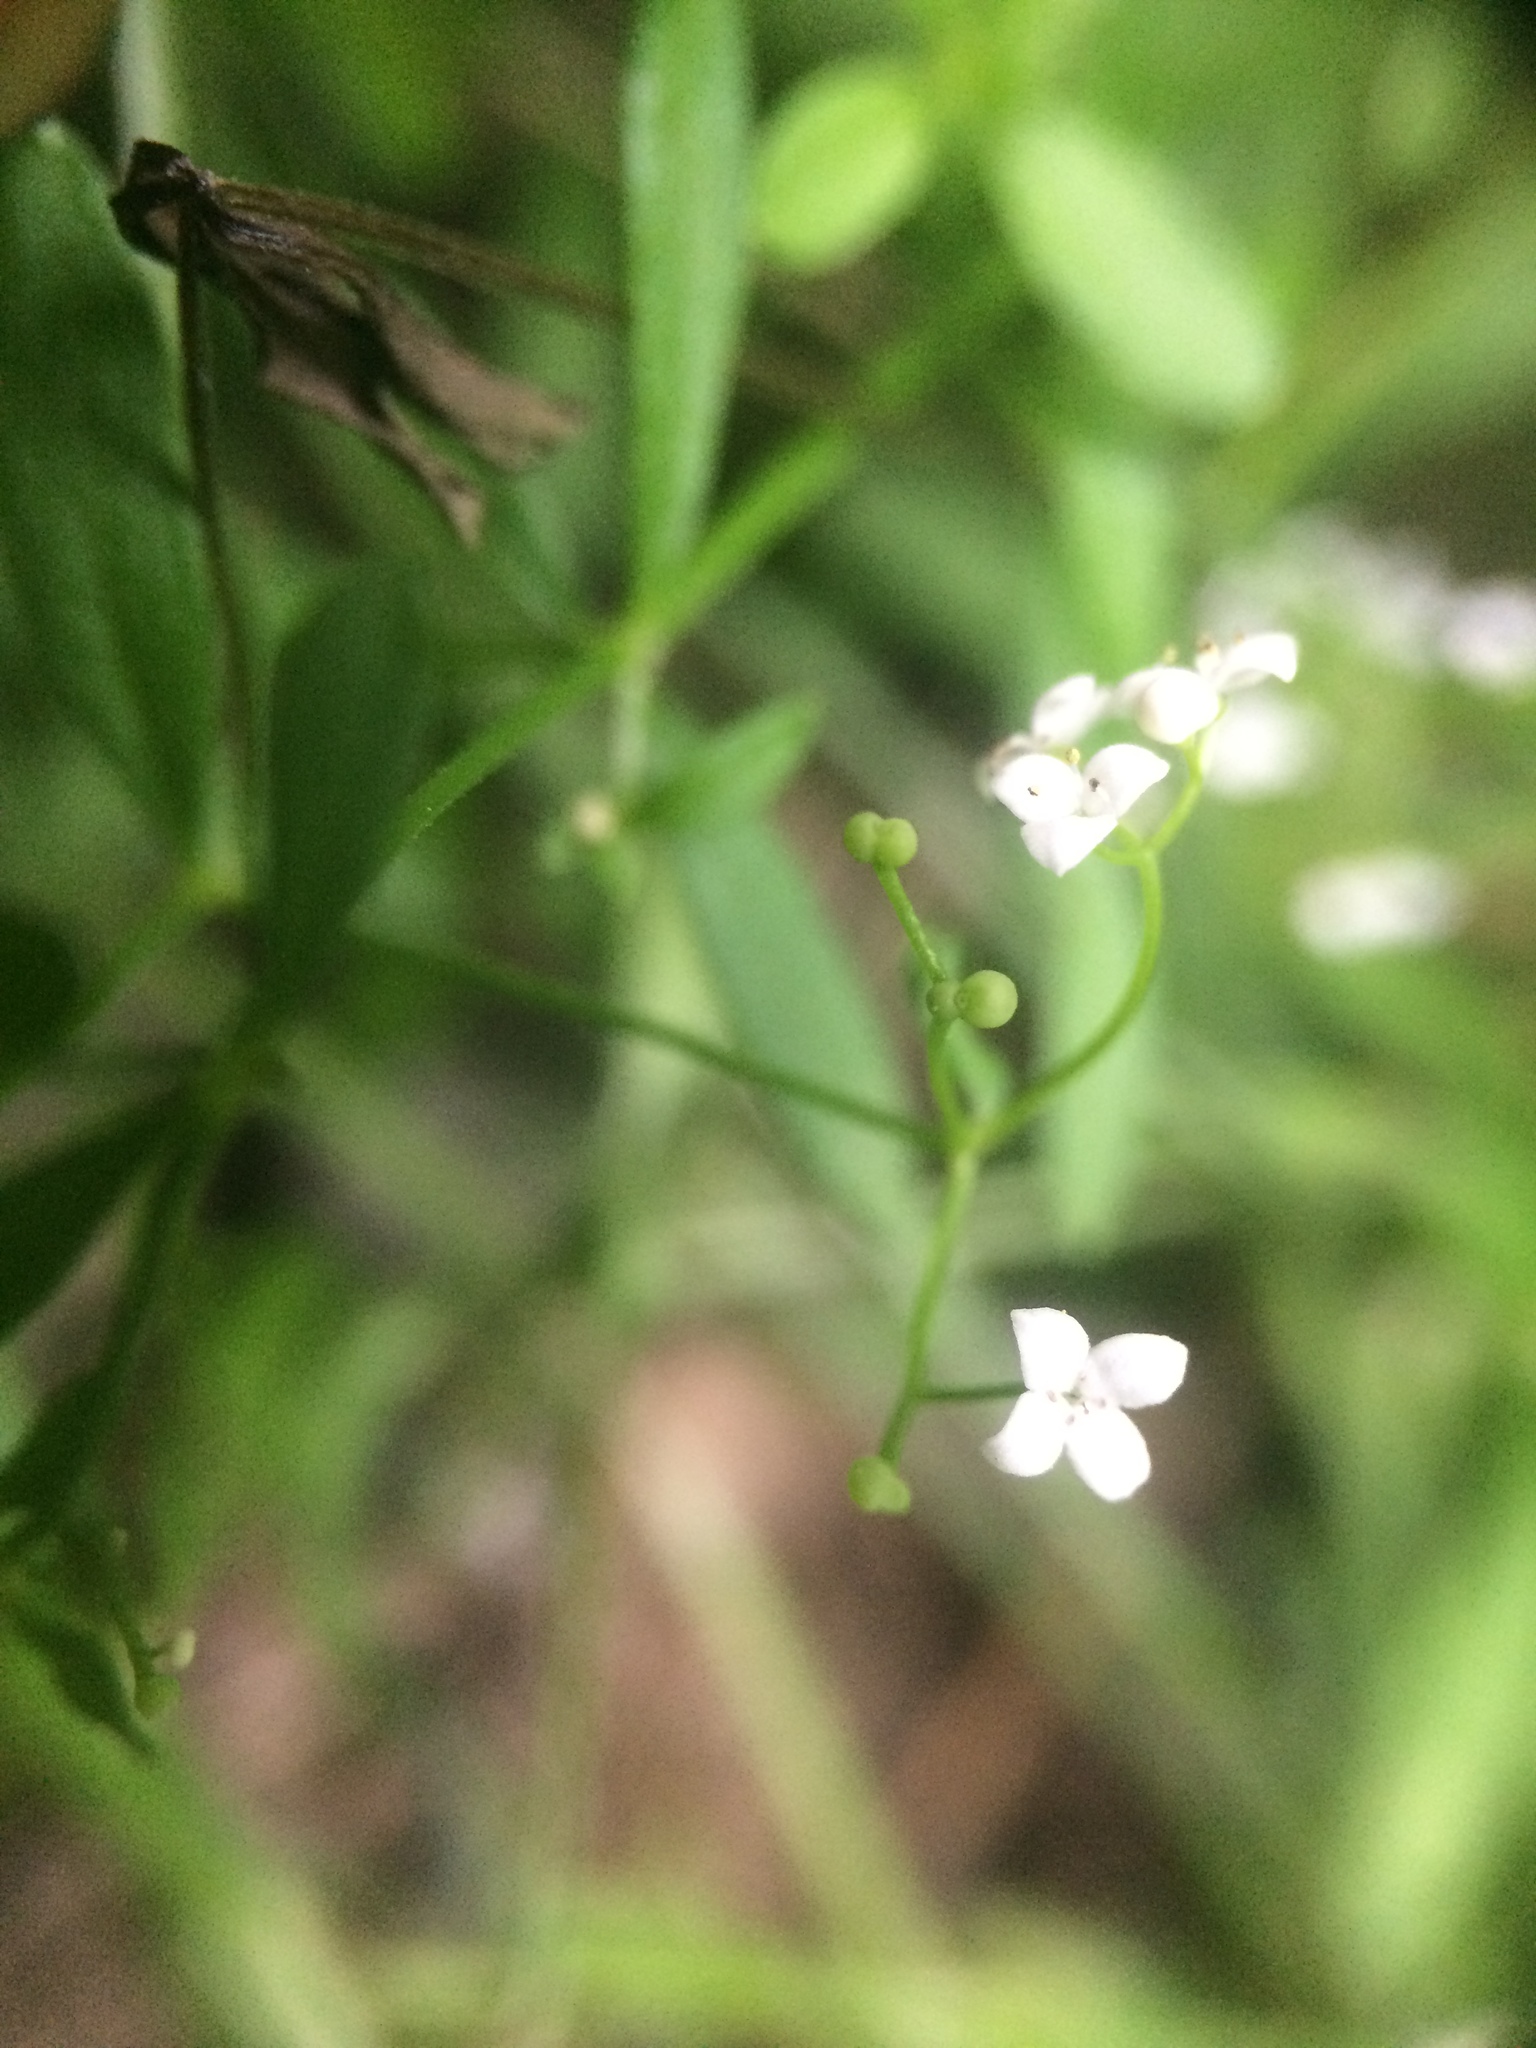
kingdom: Plantae
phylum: Tracheophyta
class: Magnoliopsida
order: Gentianales
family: Rubiaceae
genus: Galium
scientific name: Galium palustre
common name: Common marsh-bedstraw
